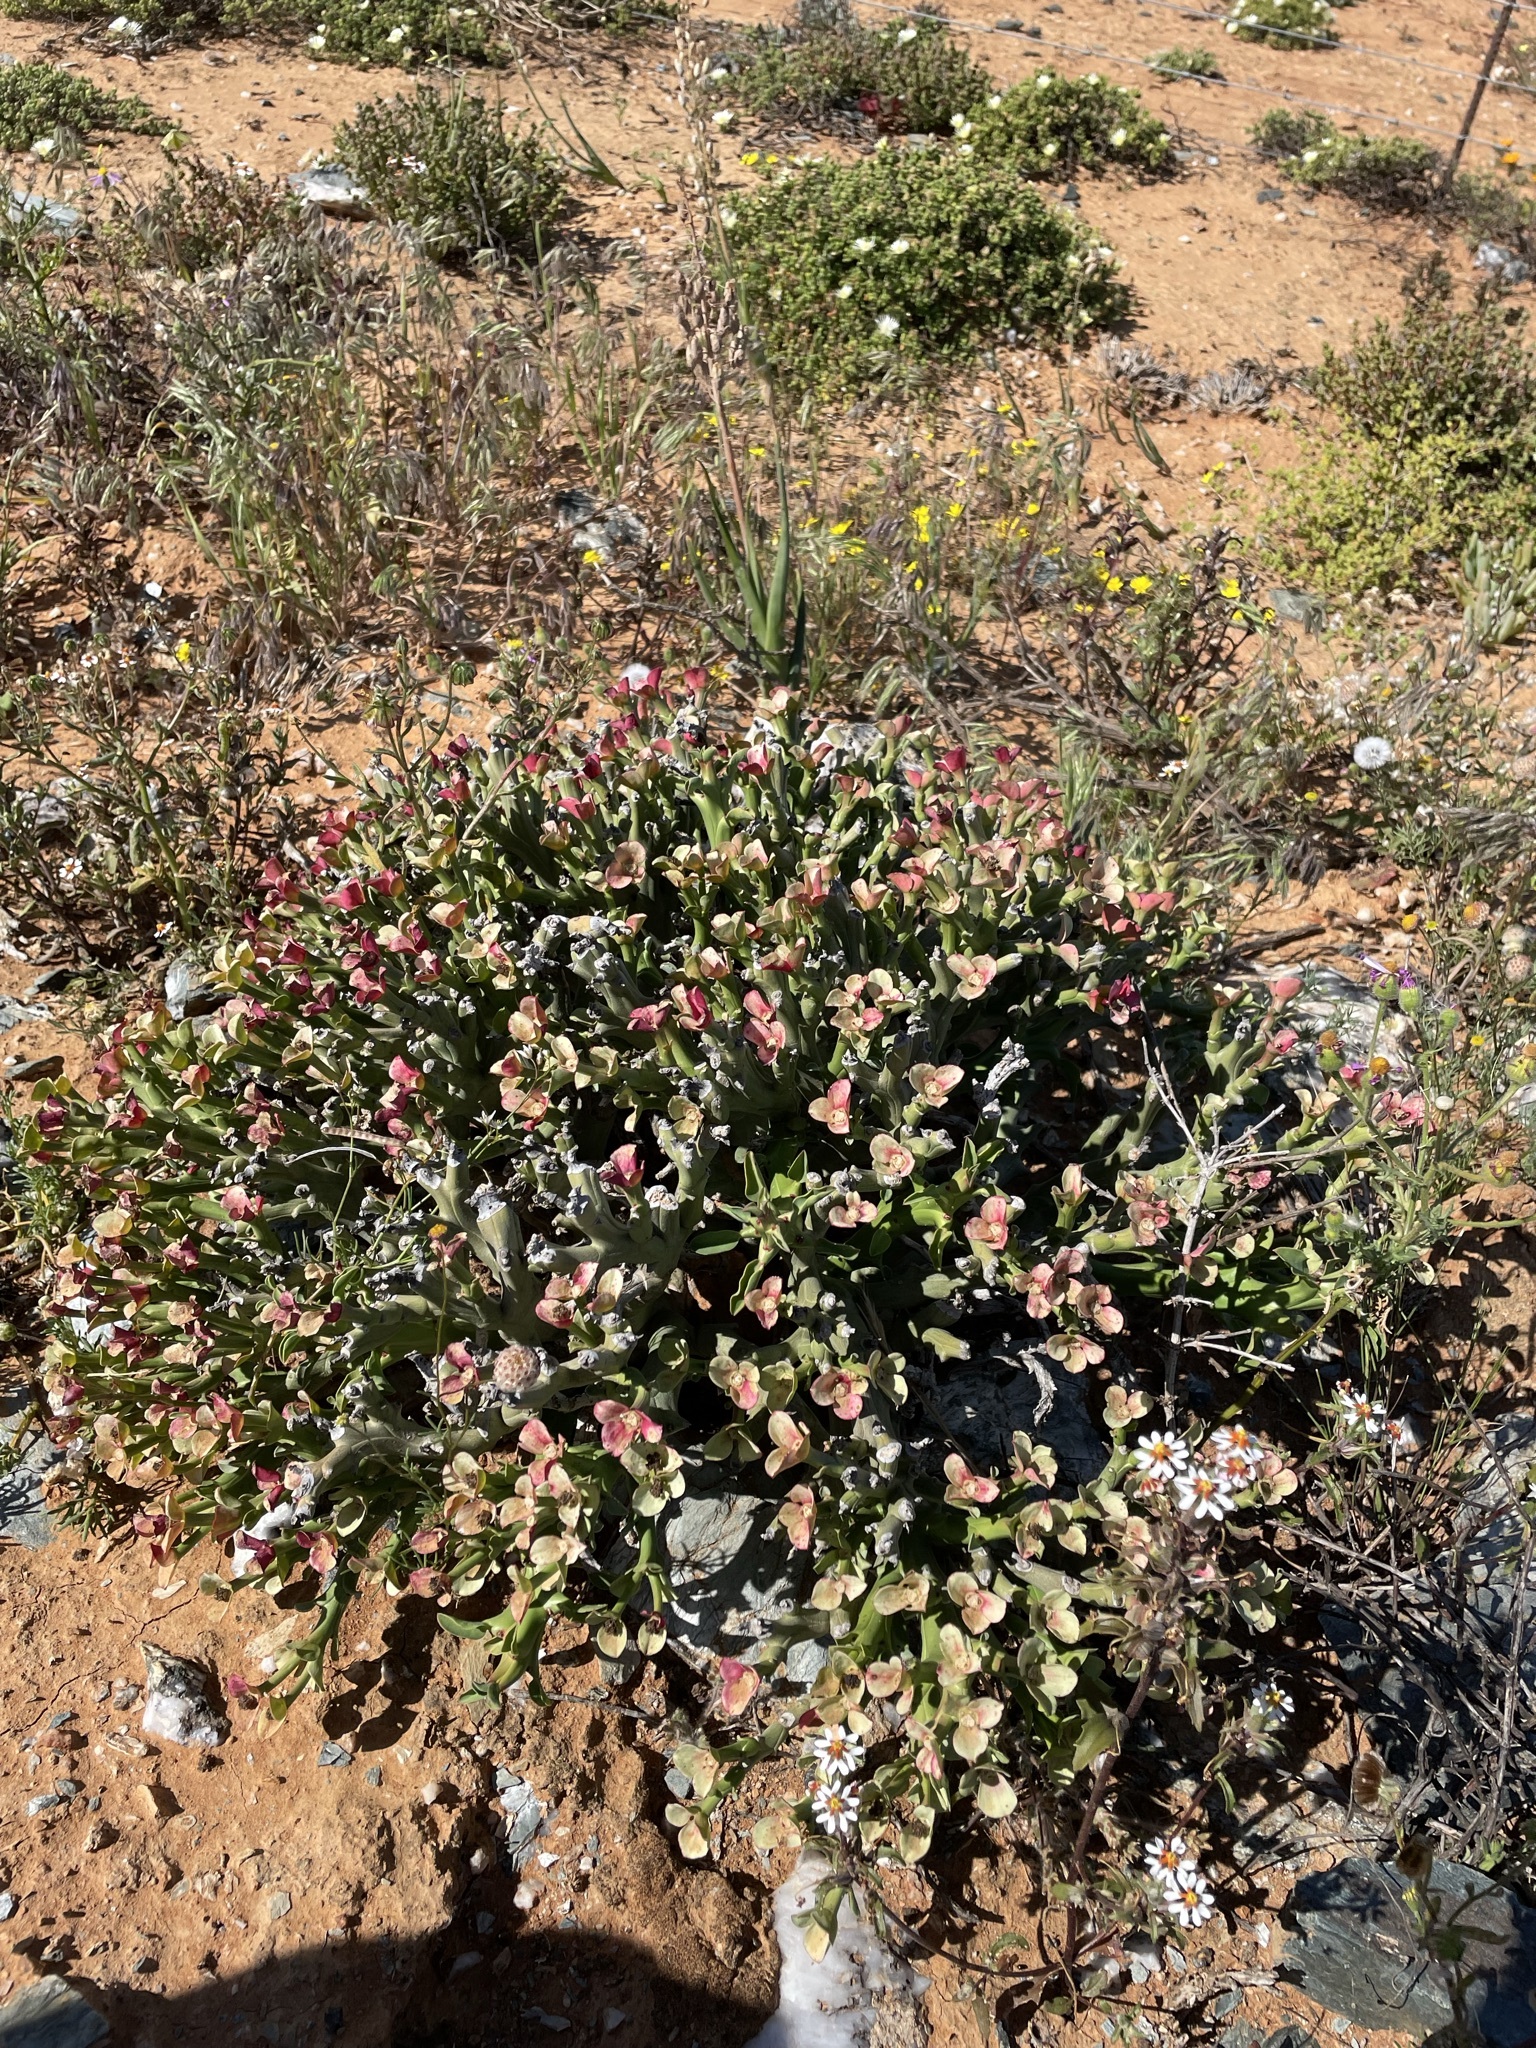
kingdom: Plantae
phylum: Tracheophyta
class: Magnoliopsida
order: Malpighiales
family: Euphorbiaceae
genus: Euphorbia
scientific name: Euphorbia hamata
